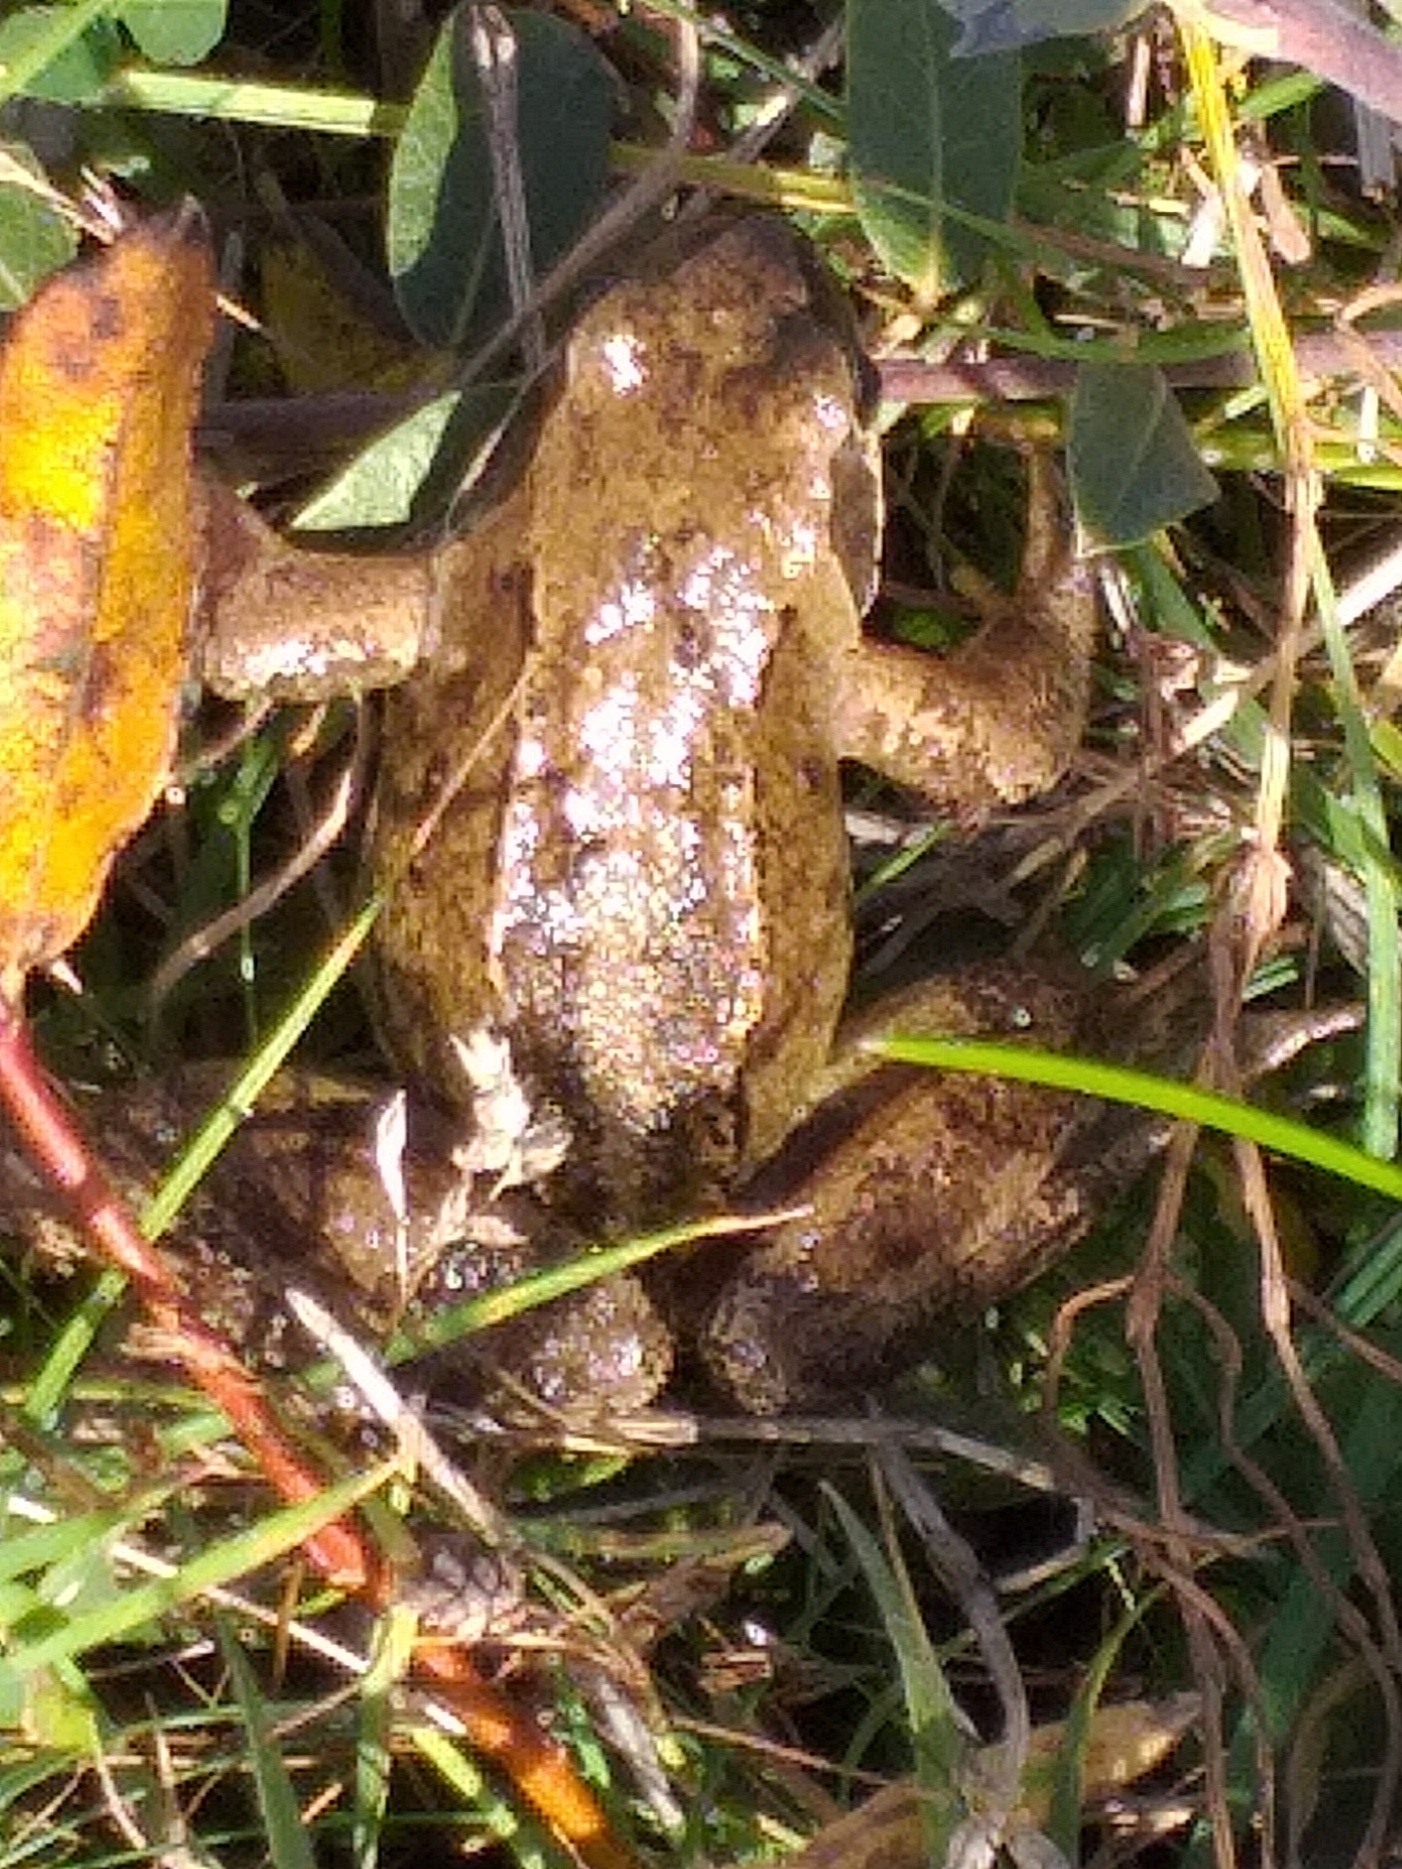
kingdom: Animalia
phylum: Chordata
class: Amphibia
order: Anura
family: Ranidae
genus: Rana
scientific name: Rana temporaria
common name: Common frog
